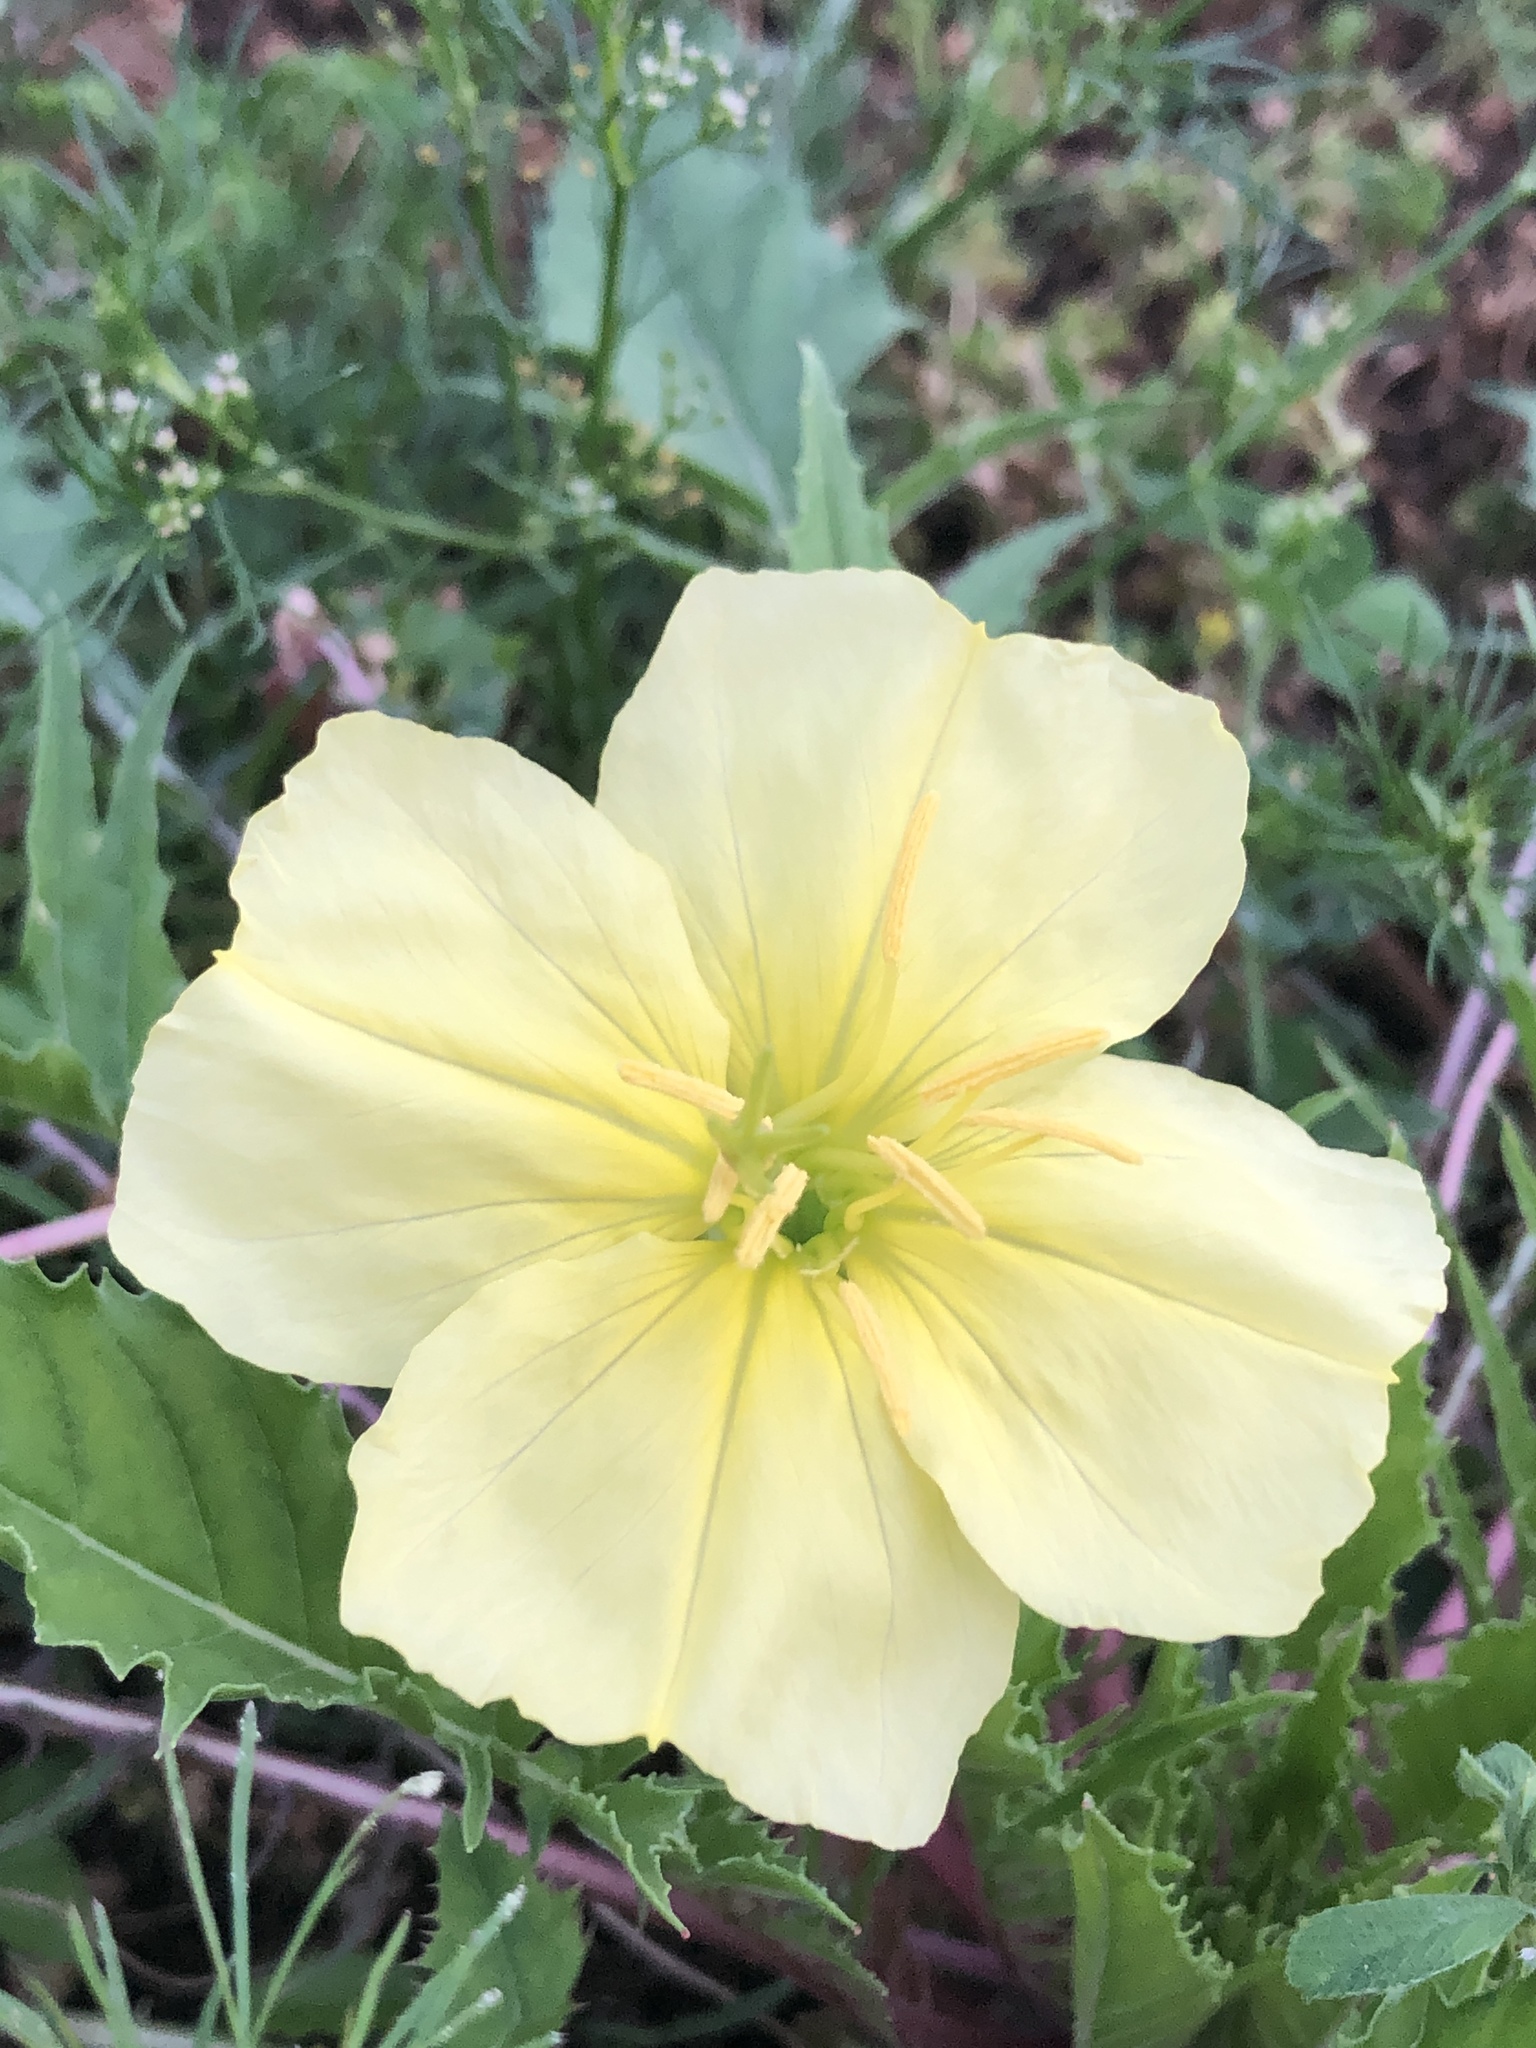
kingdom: Plantae
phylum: Tracheophyta
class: Magnoliopsida
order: Myrtales
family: Onagraceae
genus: Oenothera
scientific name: Oenothera triloba
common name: Sessile evening-primrose
